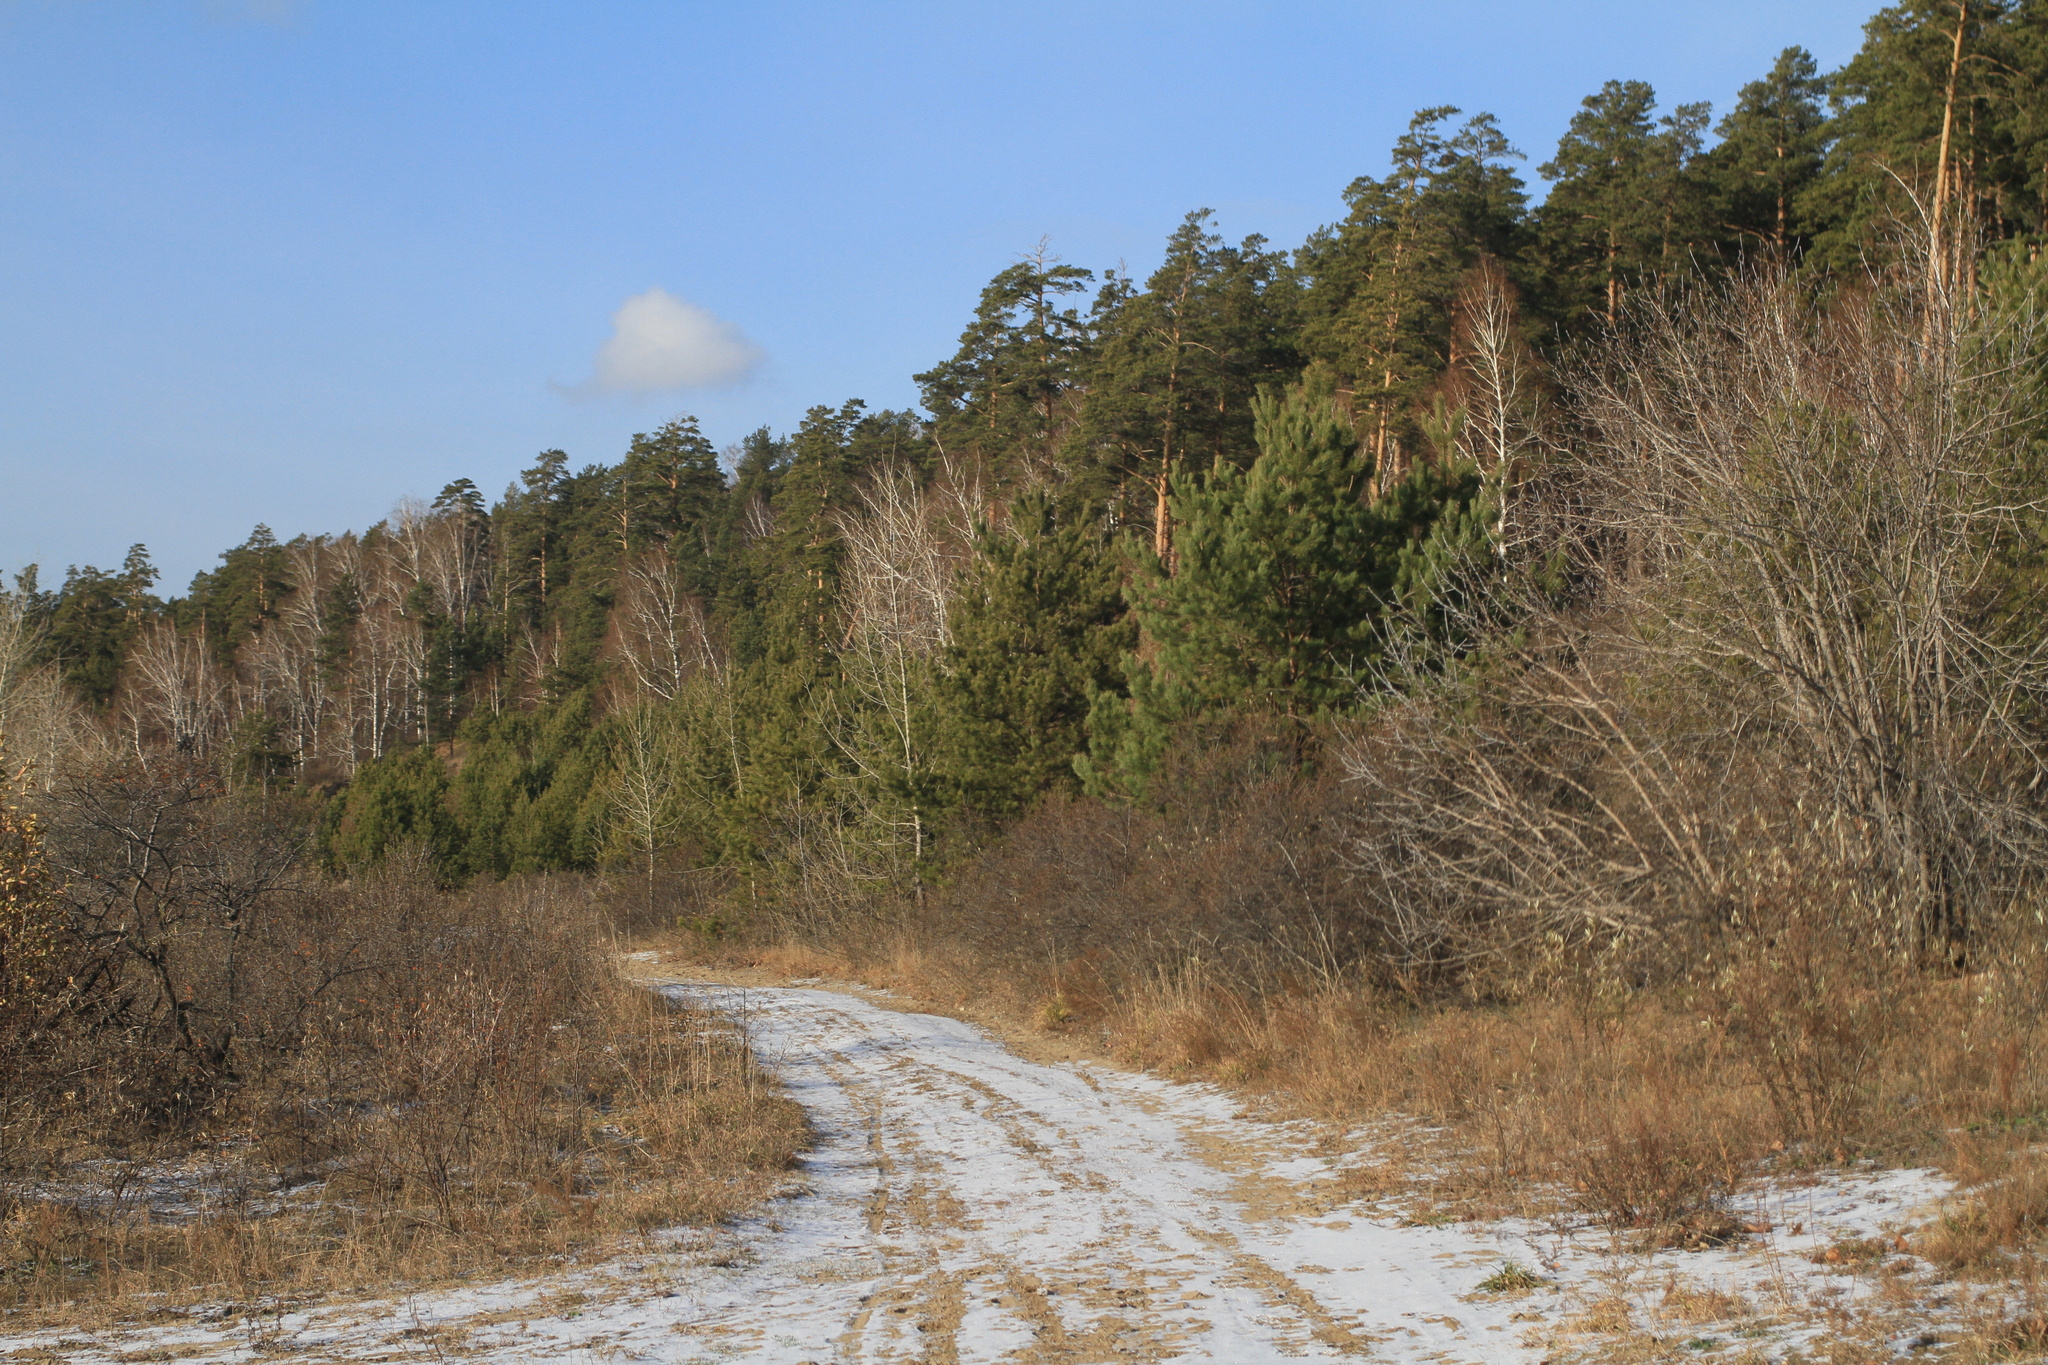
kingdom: Plantae
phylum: Tracheophyta
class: Pinopsida
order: Pinales
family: Pinaceae
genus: Pinus
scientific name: Pinus sylvestris
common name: Scots pine
